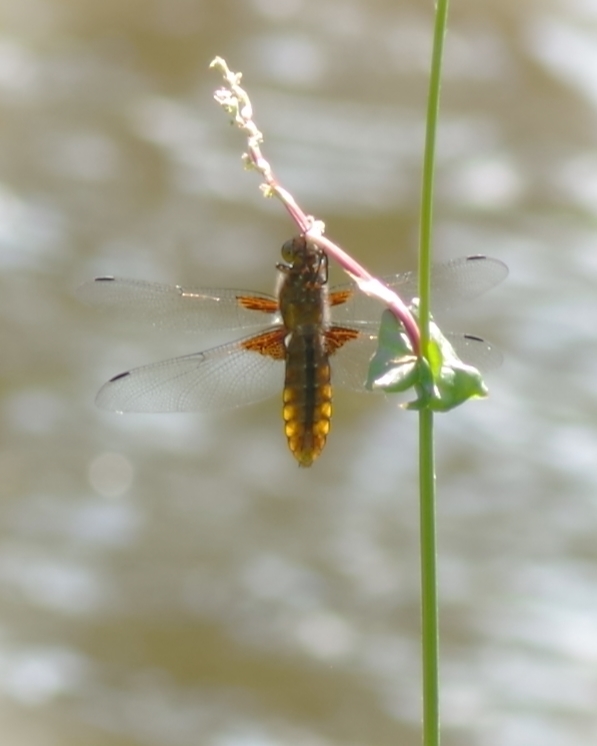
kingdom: Animalia
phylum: Arthropoda
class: Insecta
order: Odonata
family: Libellulidae
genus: Libellula
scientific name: Libellula depressa
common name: Broad-bodied chaser
